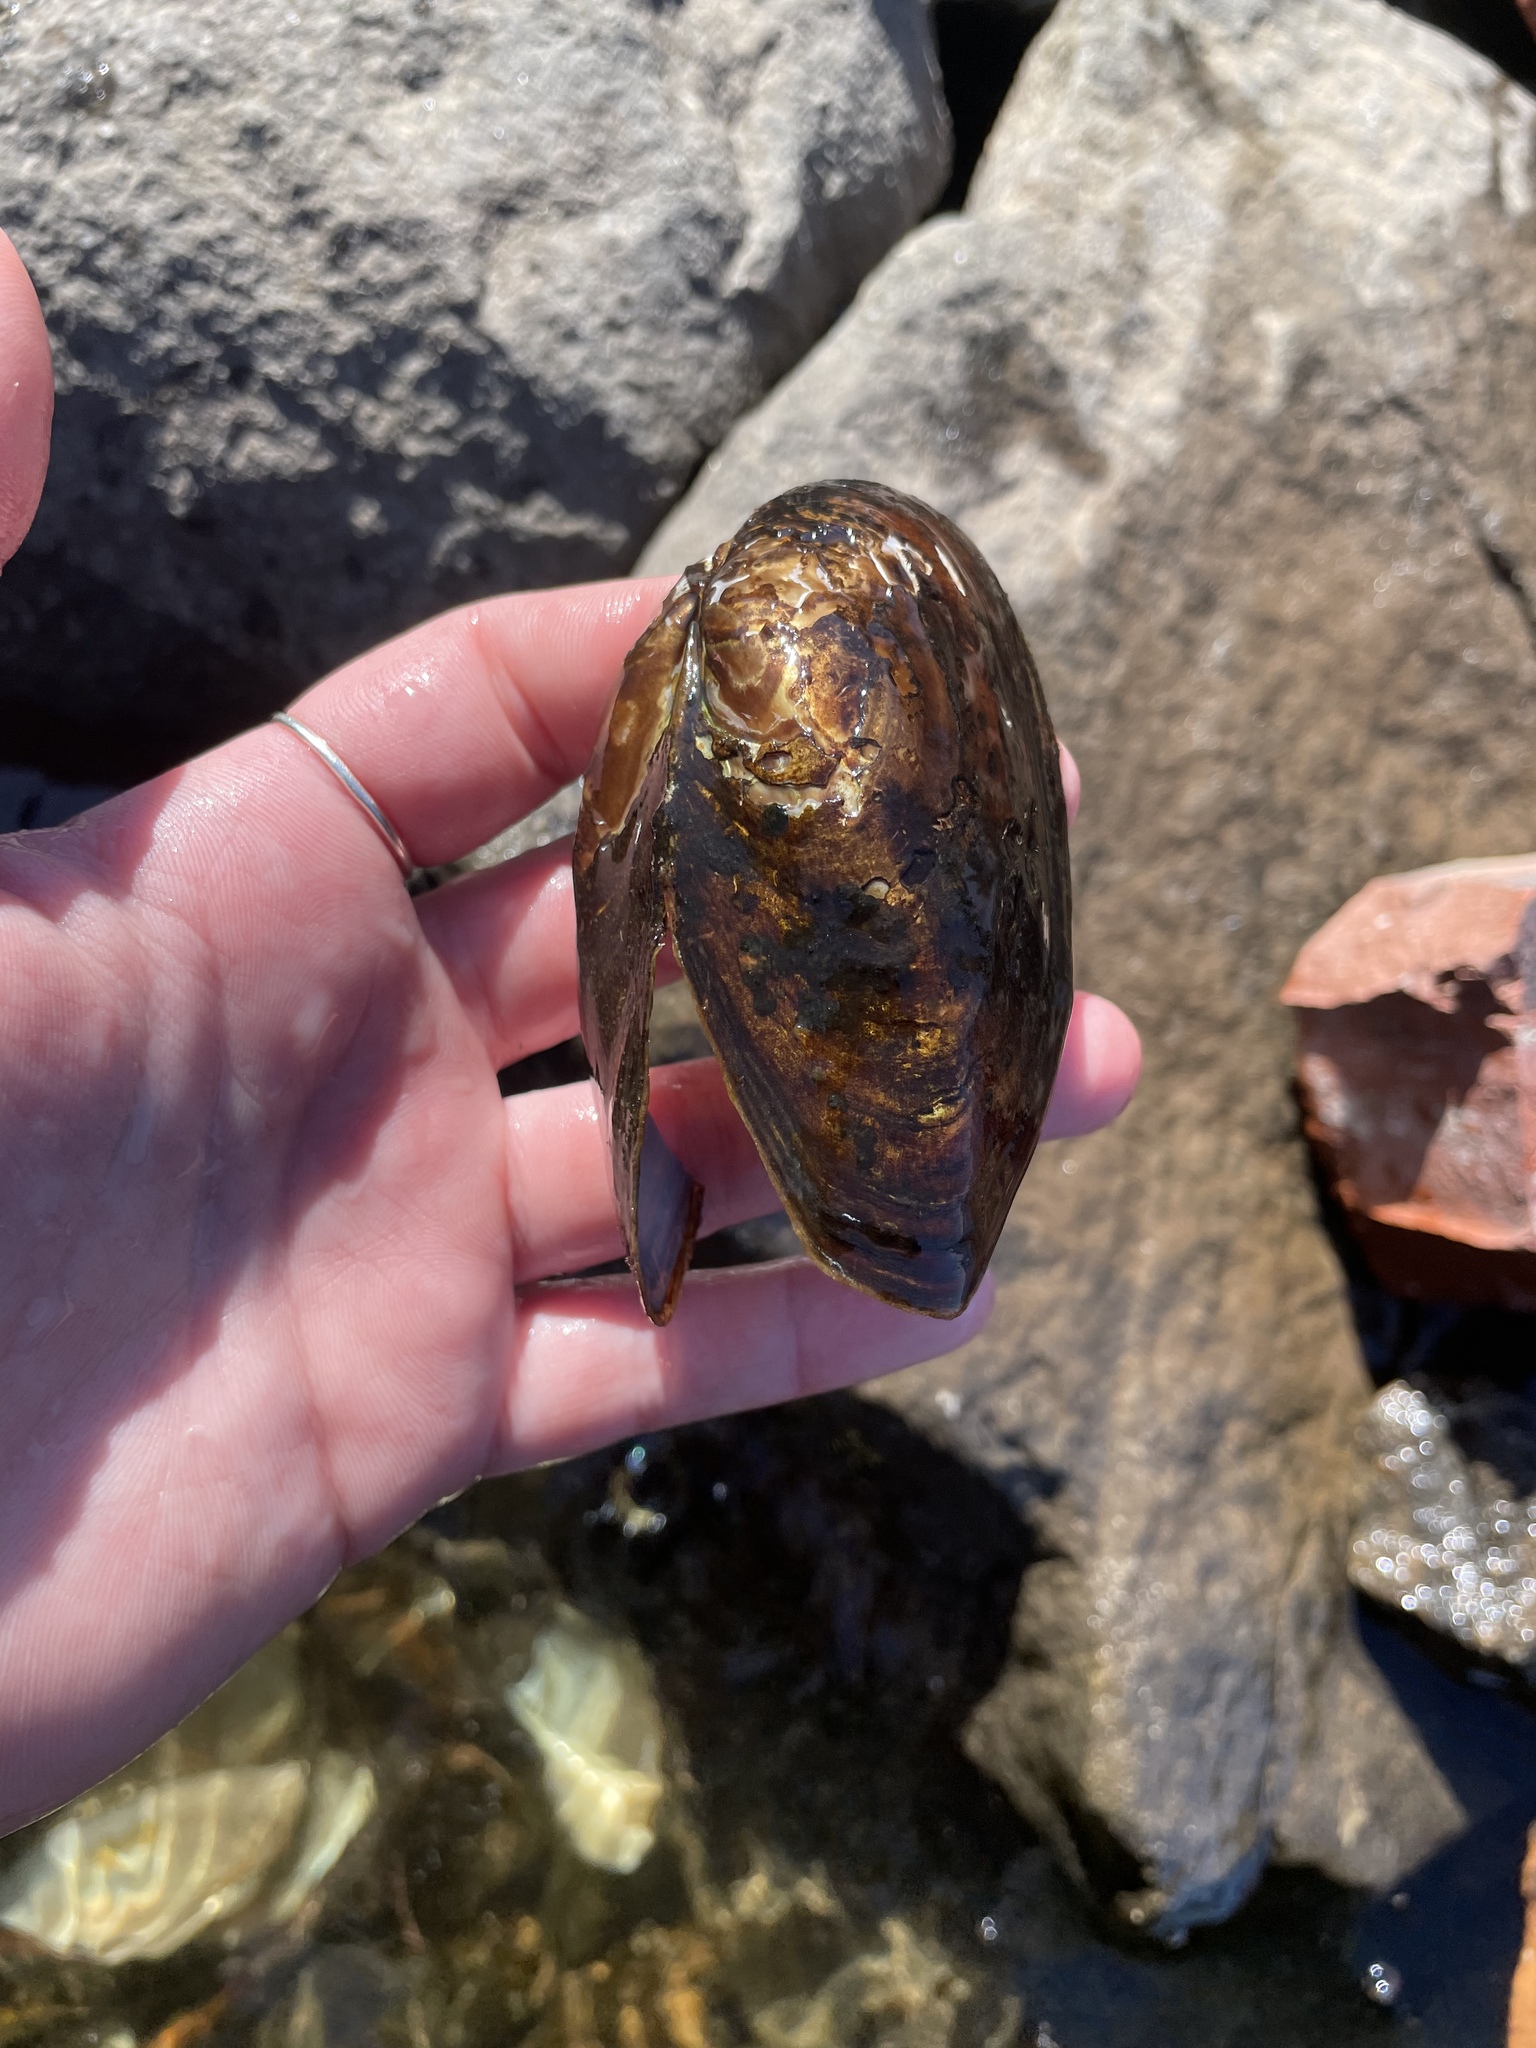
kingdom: Animalia
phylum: Mollusca
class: Bivalvia
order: Unionida
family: Unionidae
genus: Utterbackiana
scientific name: Utterbackiana implicata
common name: Alewife floater
